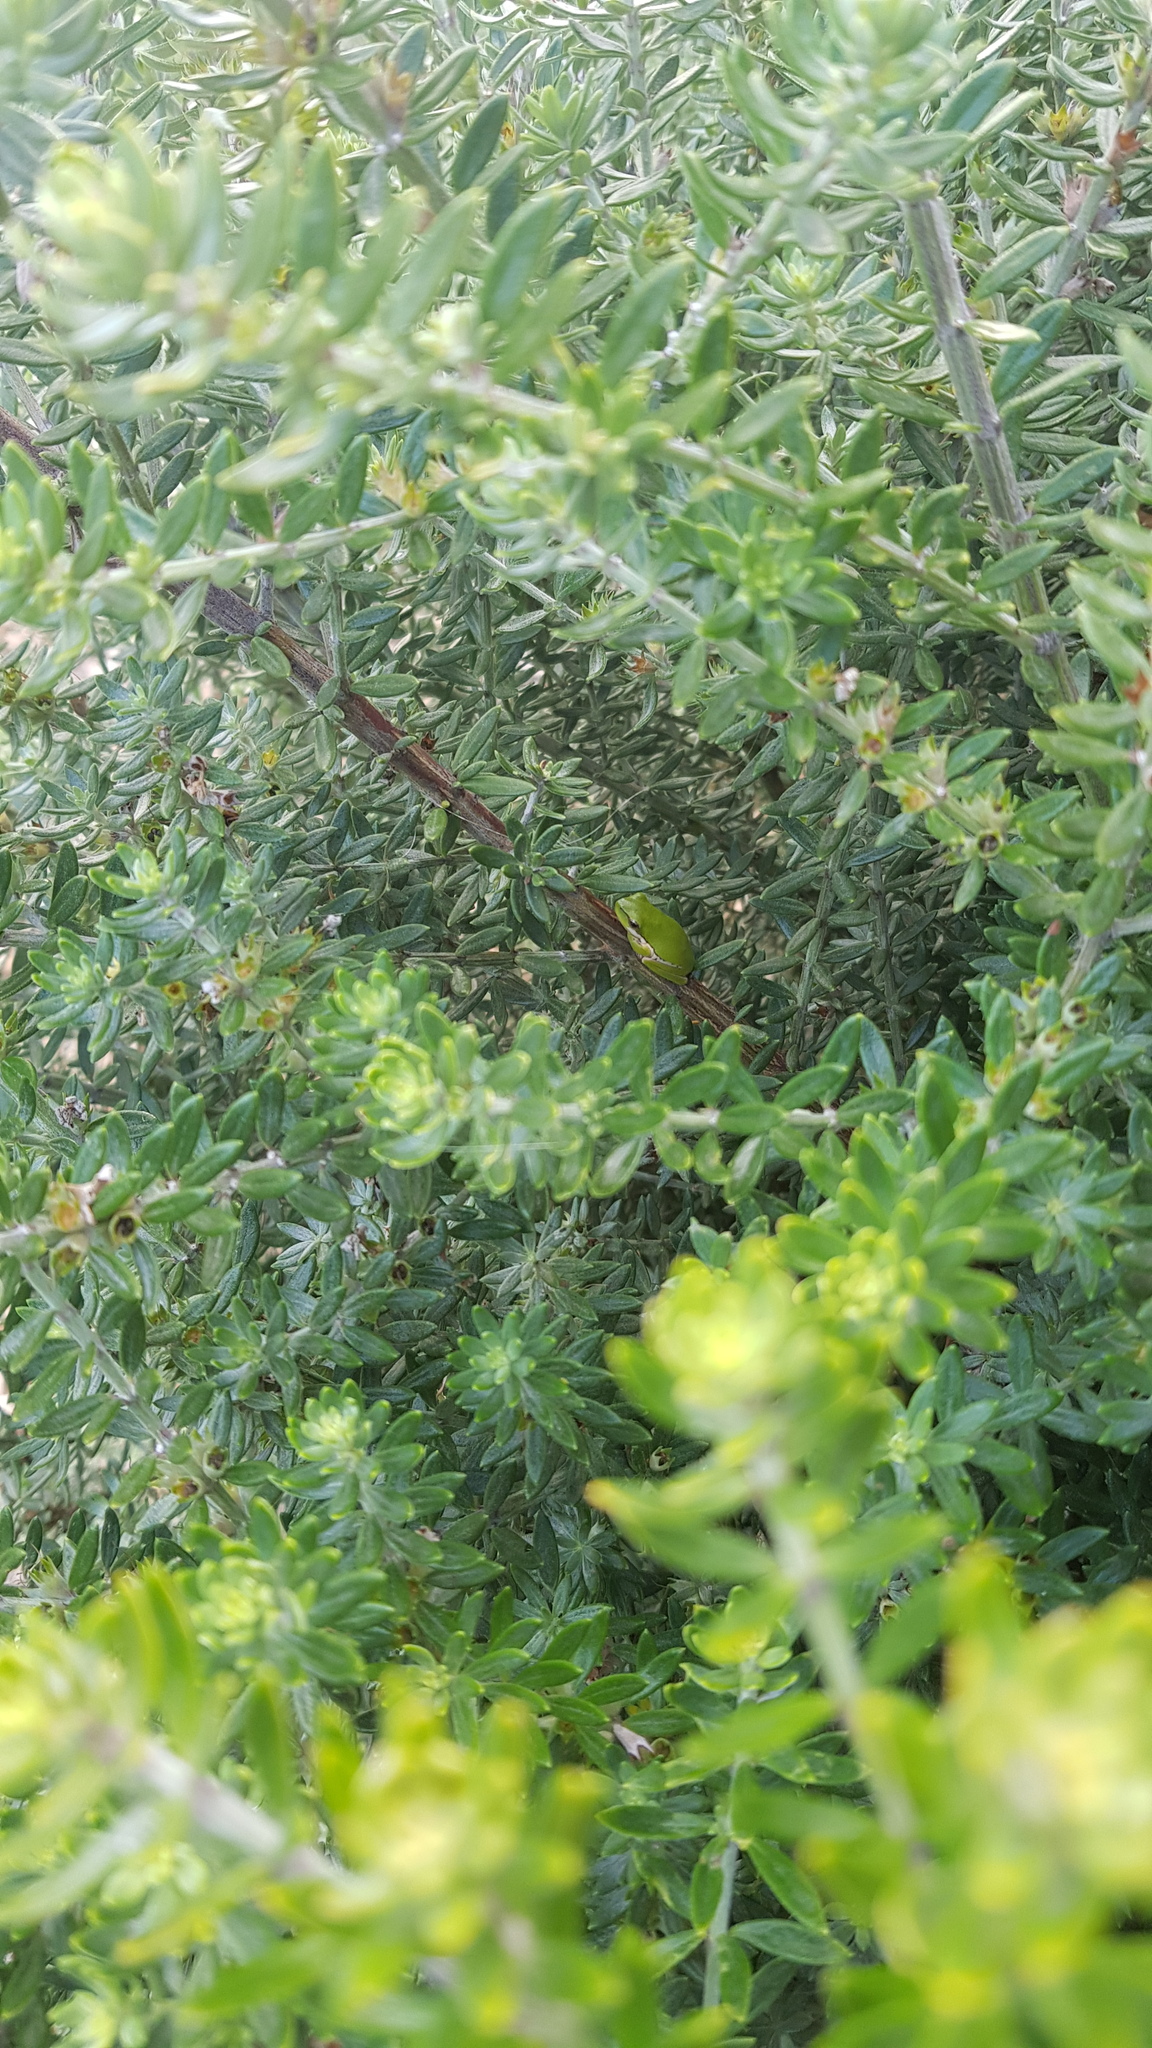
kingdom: Animalia
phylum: Chordata
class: Amphibia
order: Anura
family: Pelodryadidae
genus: Litoria
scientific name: Litoria fallax
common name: Eastern dwarf treefrog
